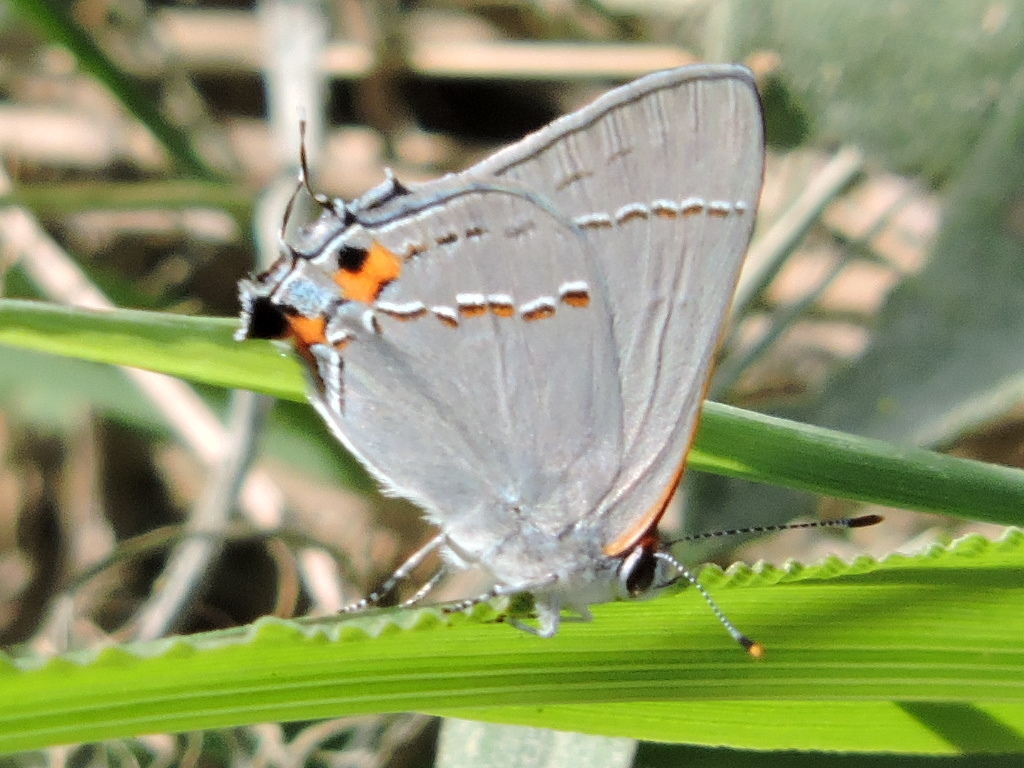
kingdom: Animalia
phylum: Arthropoda
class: Insecta
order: Lepidoptera
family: Lycaenidae
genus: Strymon
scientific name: Strymon melinus
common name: Gray hairstreak
